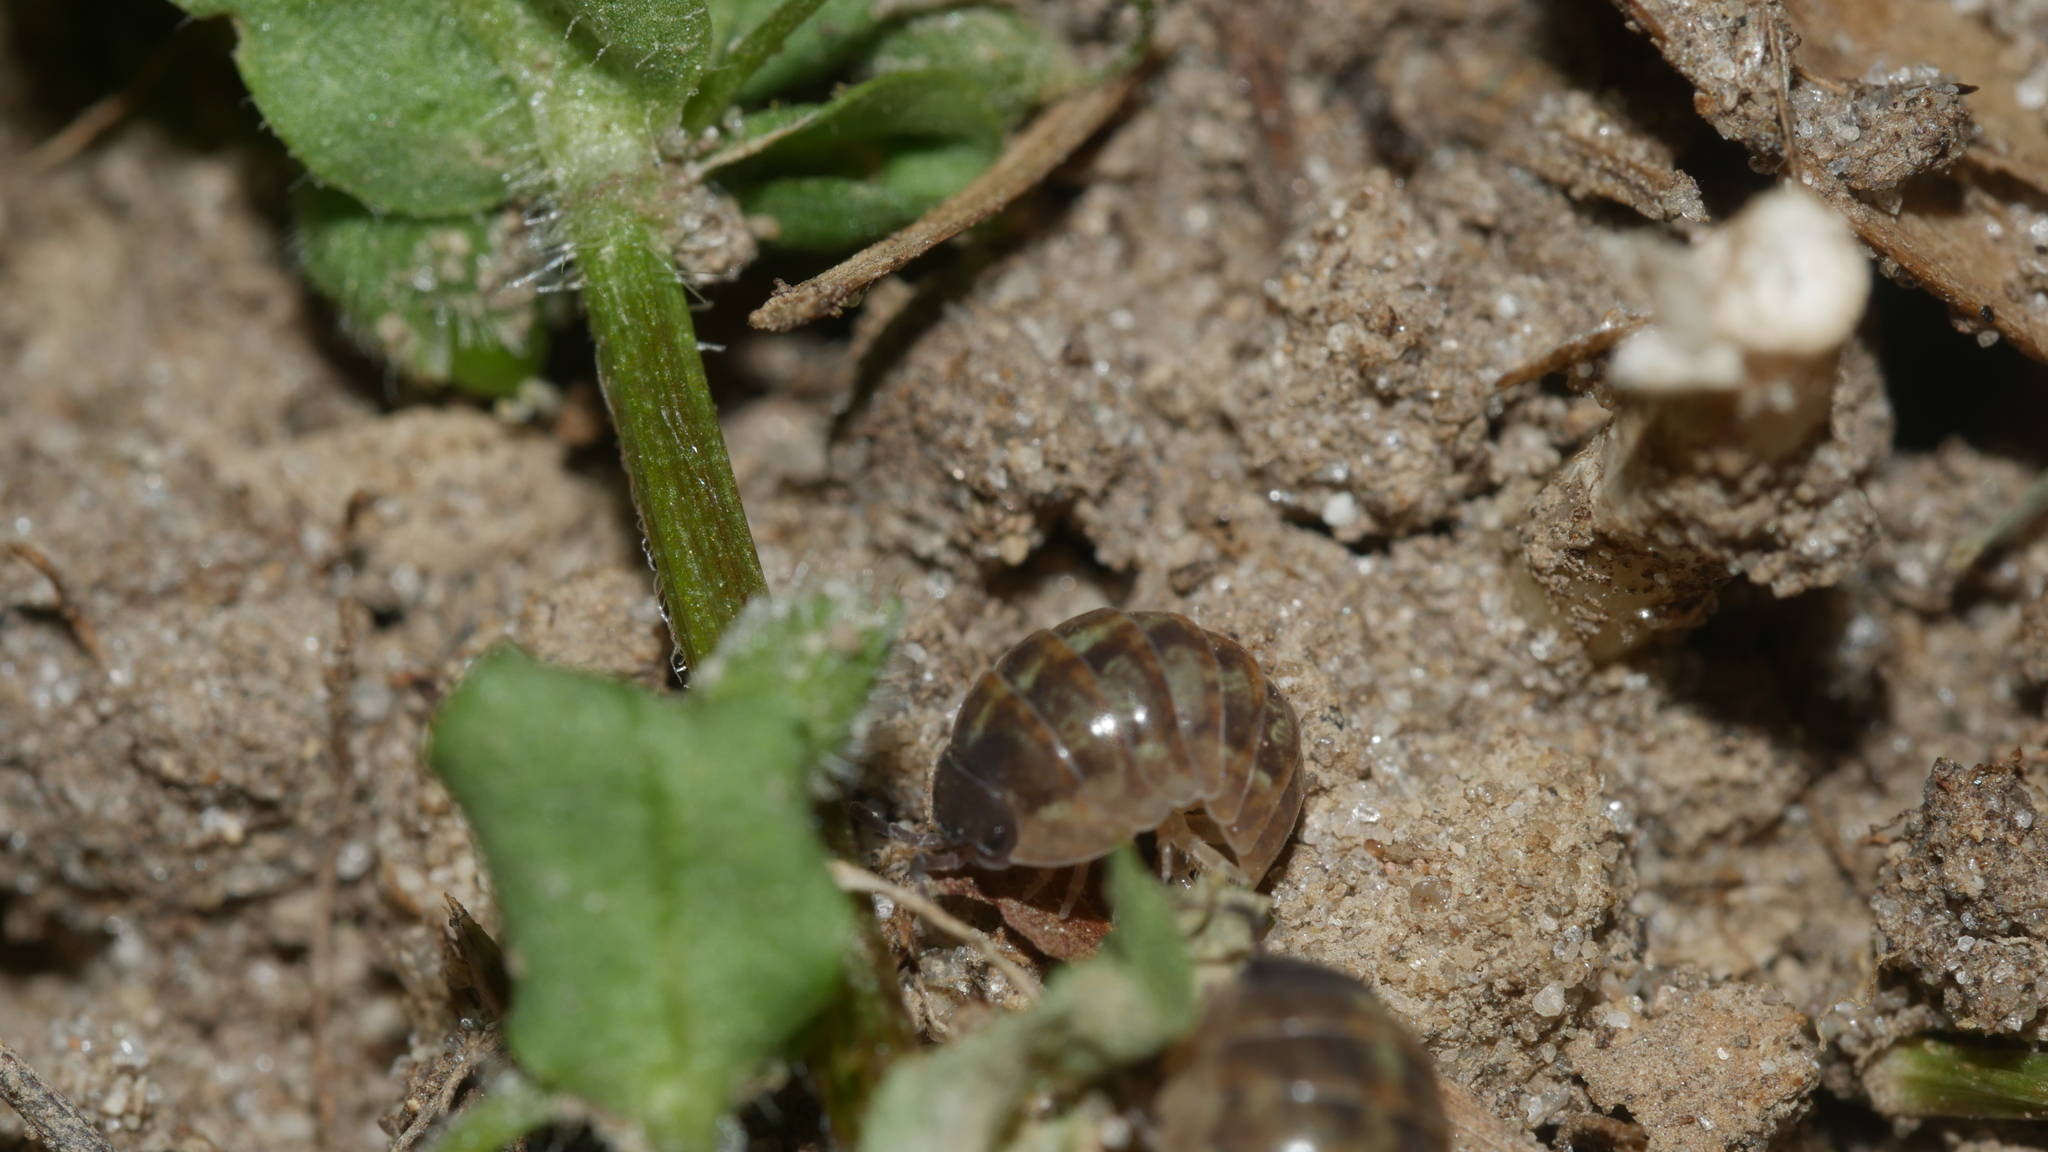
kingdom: Animalia
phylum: Arthropoda
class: Malacostraca
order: Isopoda
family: Armadillidiidae
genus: Armadillidium
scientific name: Armadillidium vulgare
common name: Common pill woodlouse
